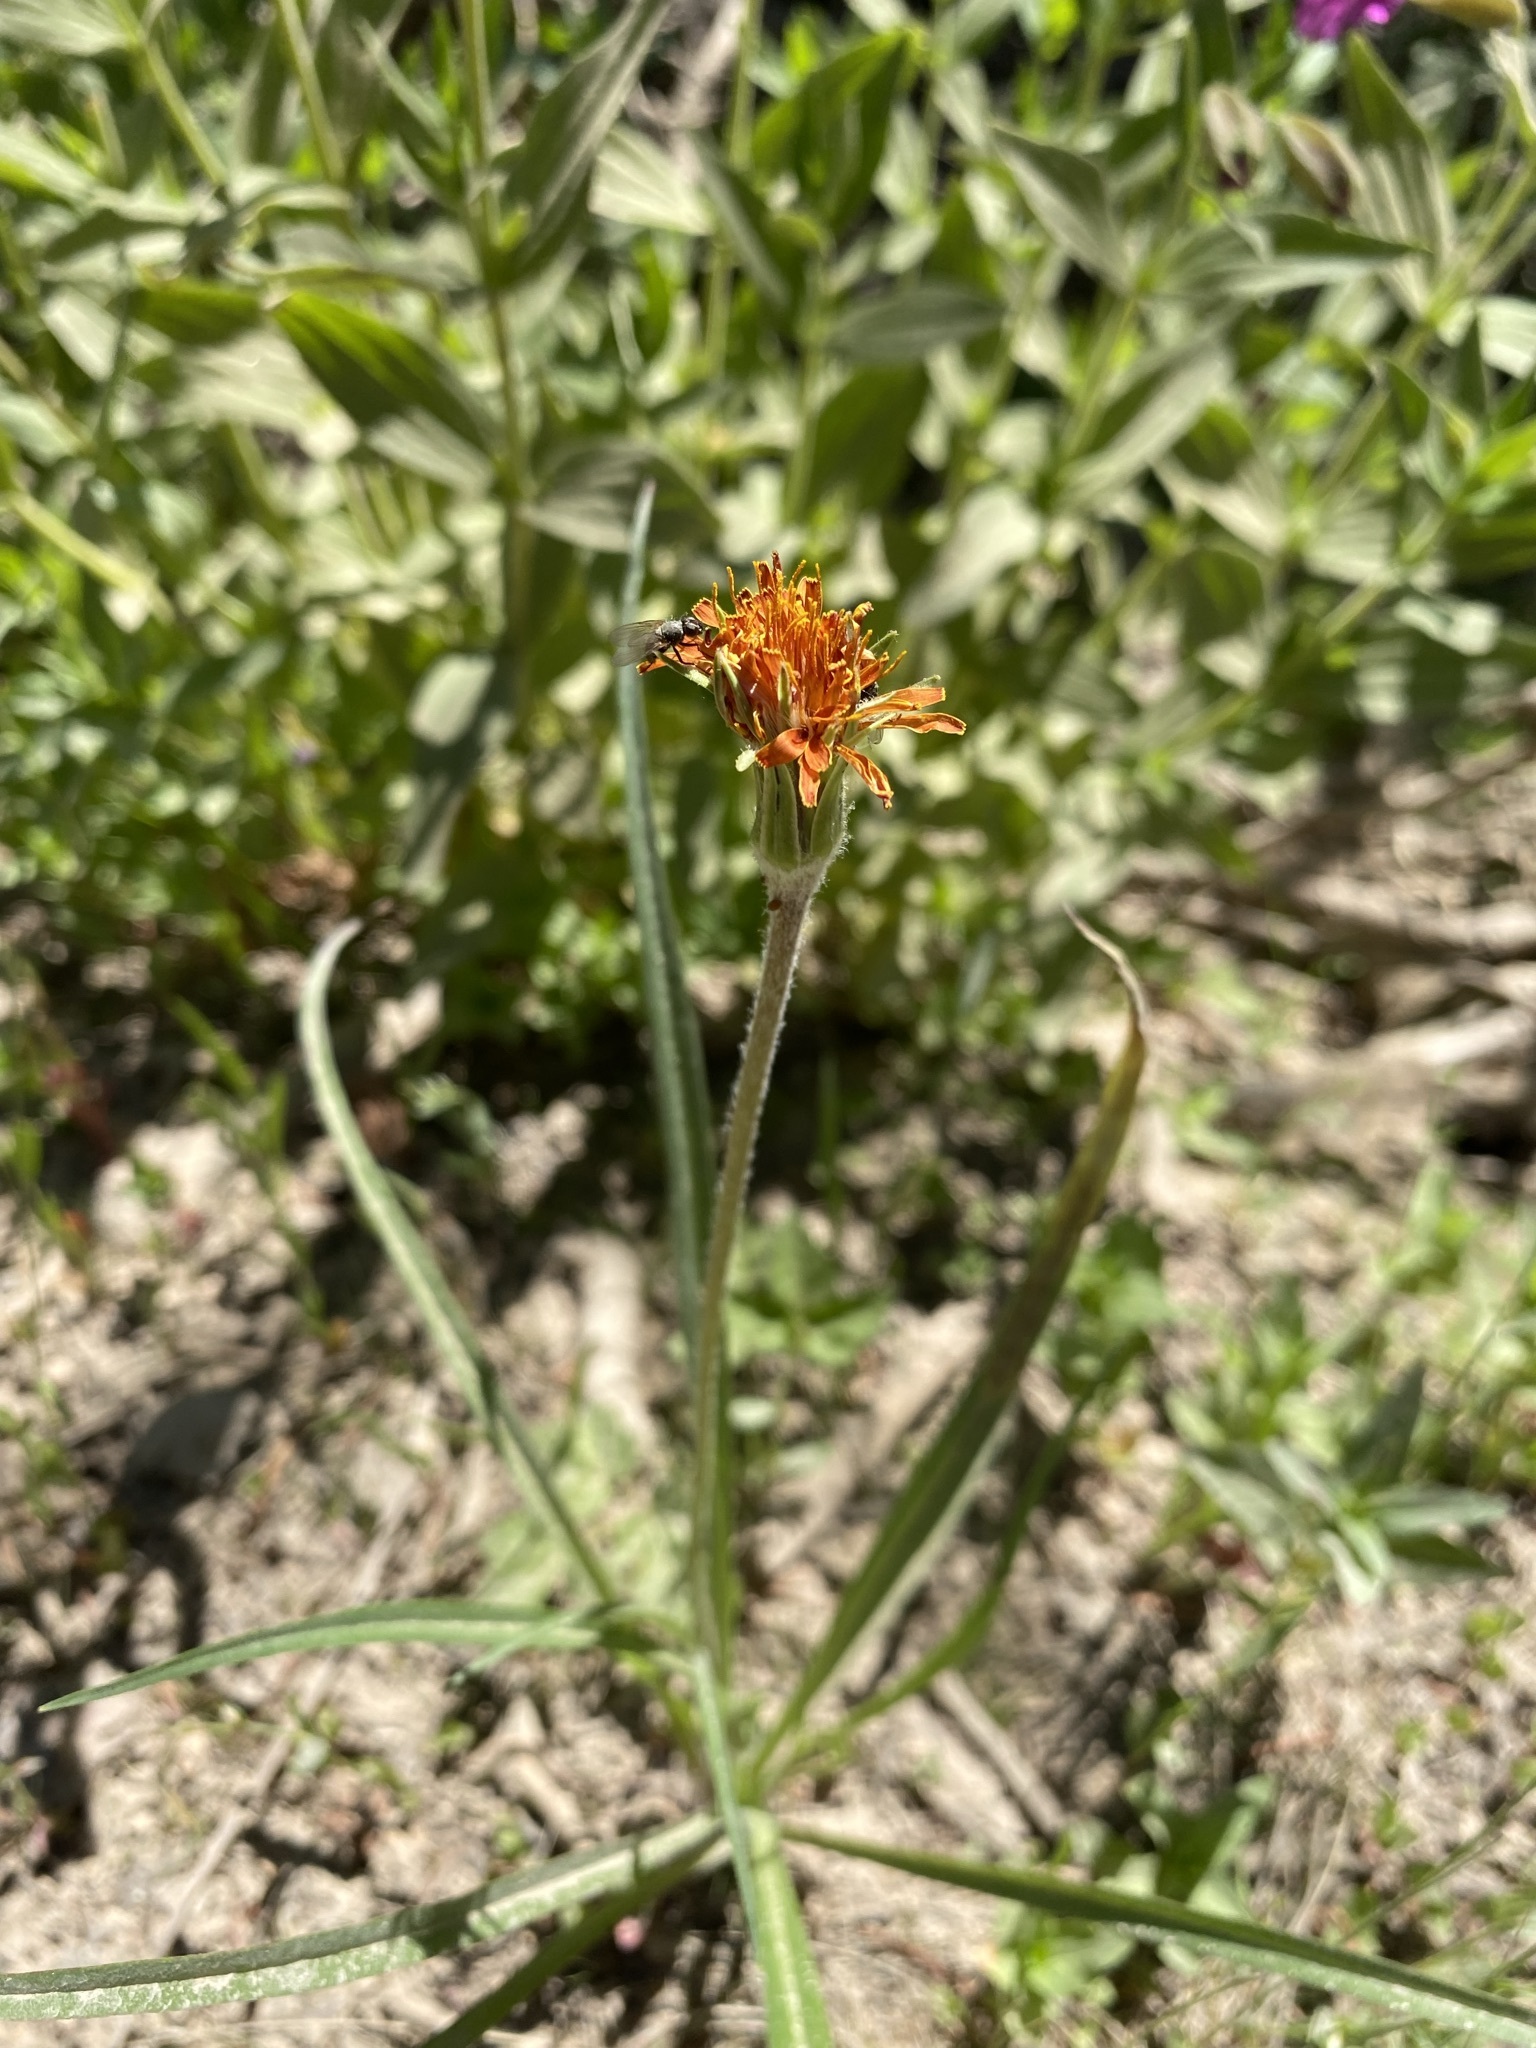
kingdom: Plantae
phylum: Tracheophyta
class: Magnoliopsida
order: Asterales
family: Asteraceae
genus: Agoseris
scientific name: Agoseris aurantiaca
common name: Mountain agoseris
